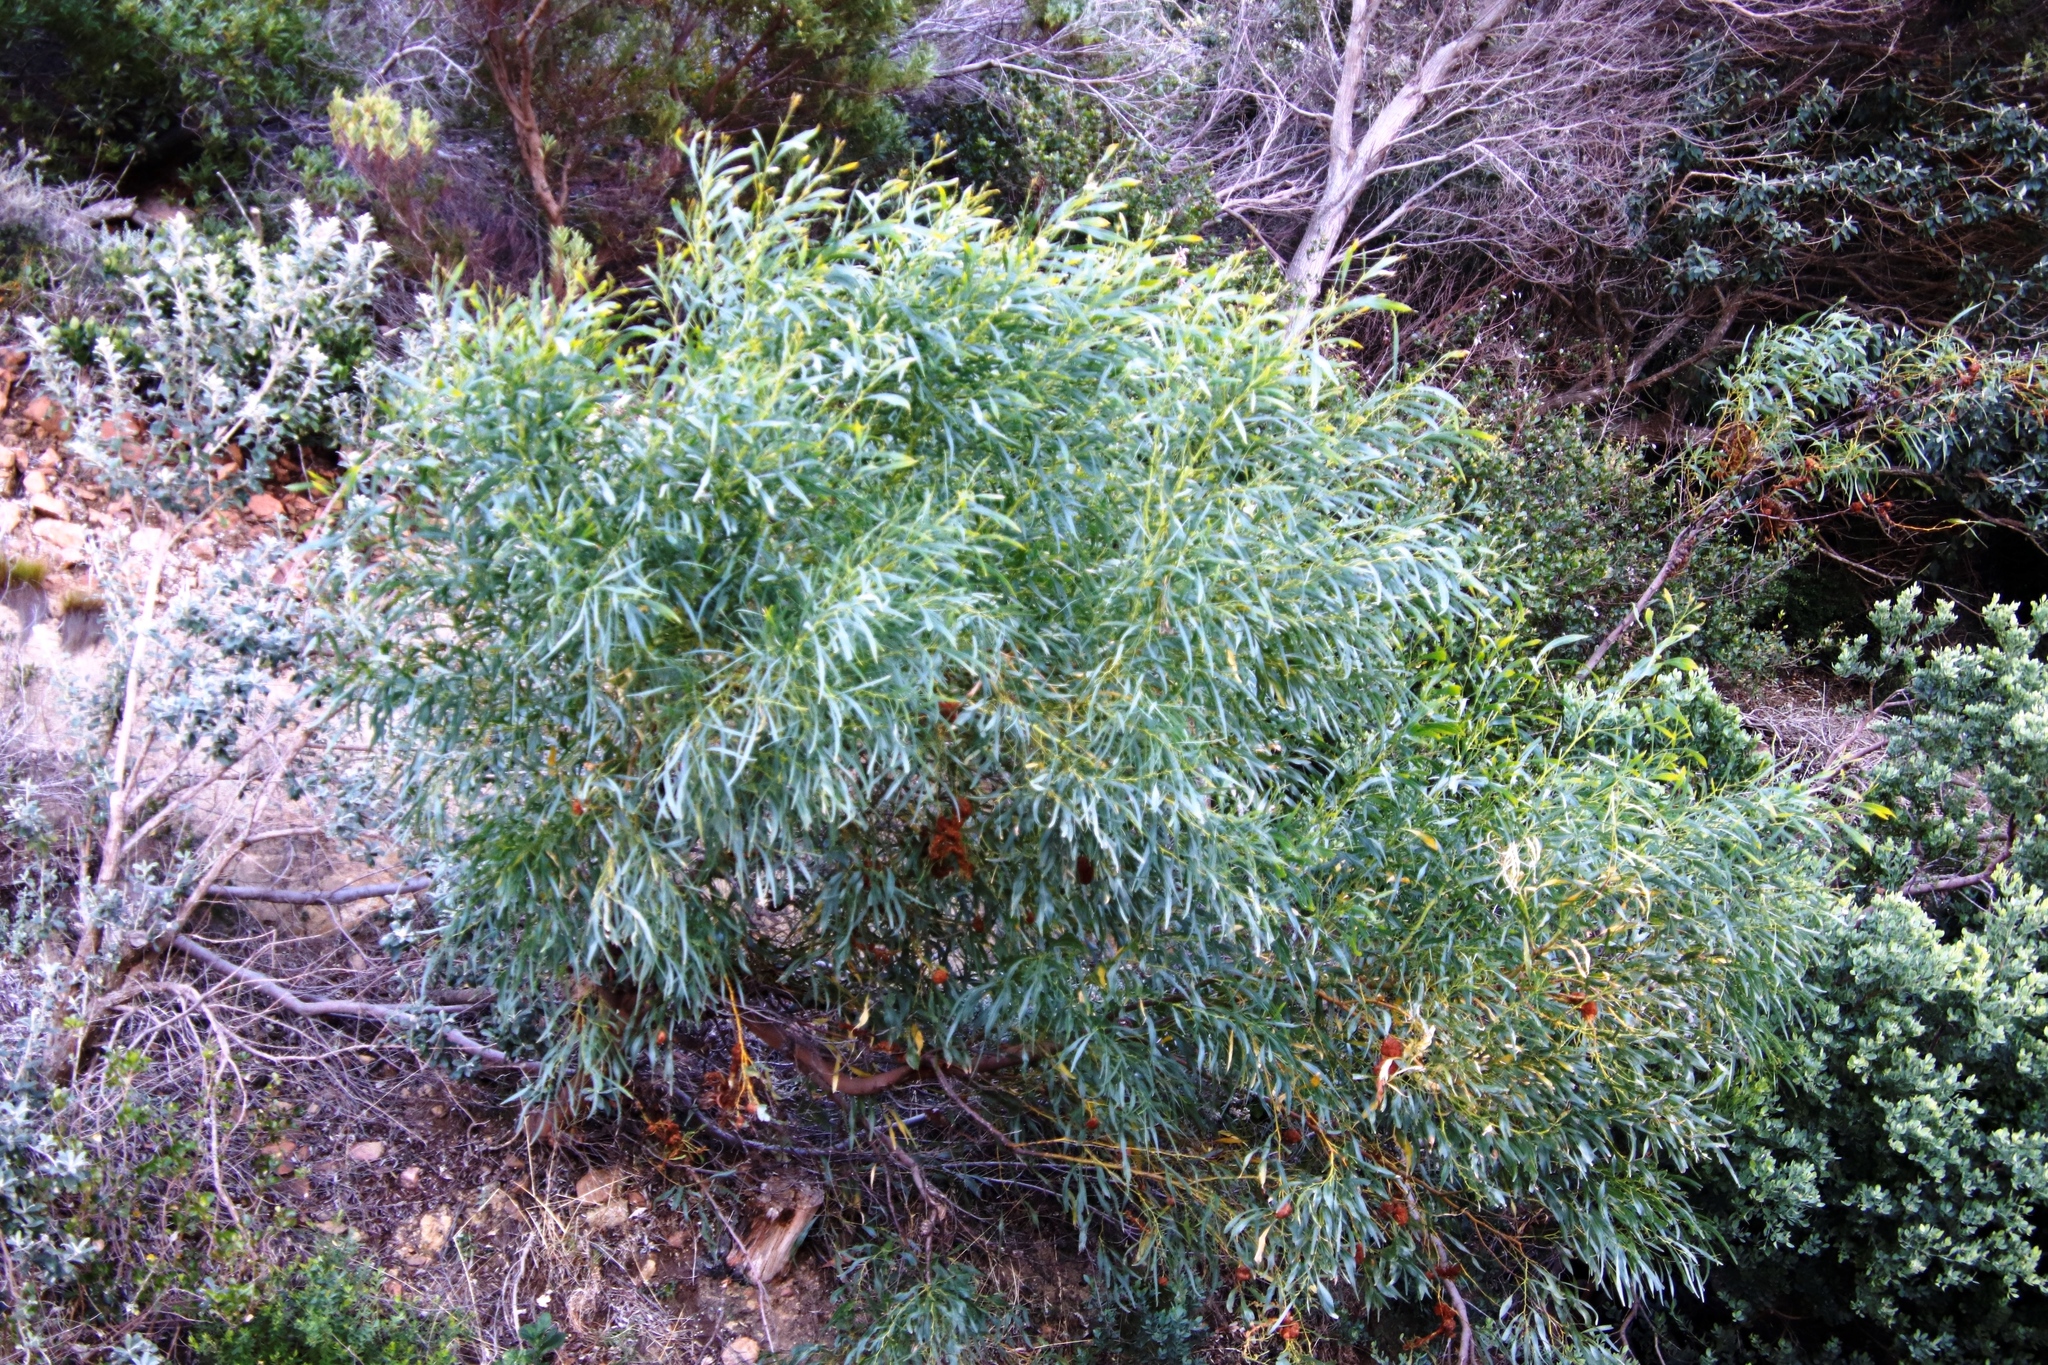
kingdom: Plantae
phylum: Tracheophyta
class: Magnoliopsida
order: Fabales
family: Fabaceae
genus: Acacia
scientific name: Acacia saligna
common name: Orange wattle
